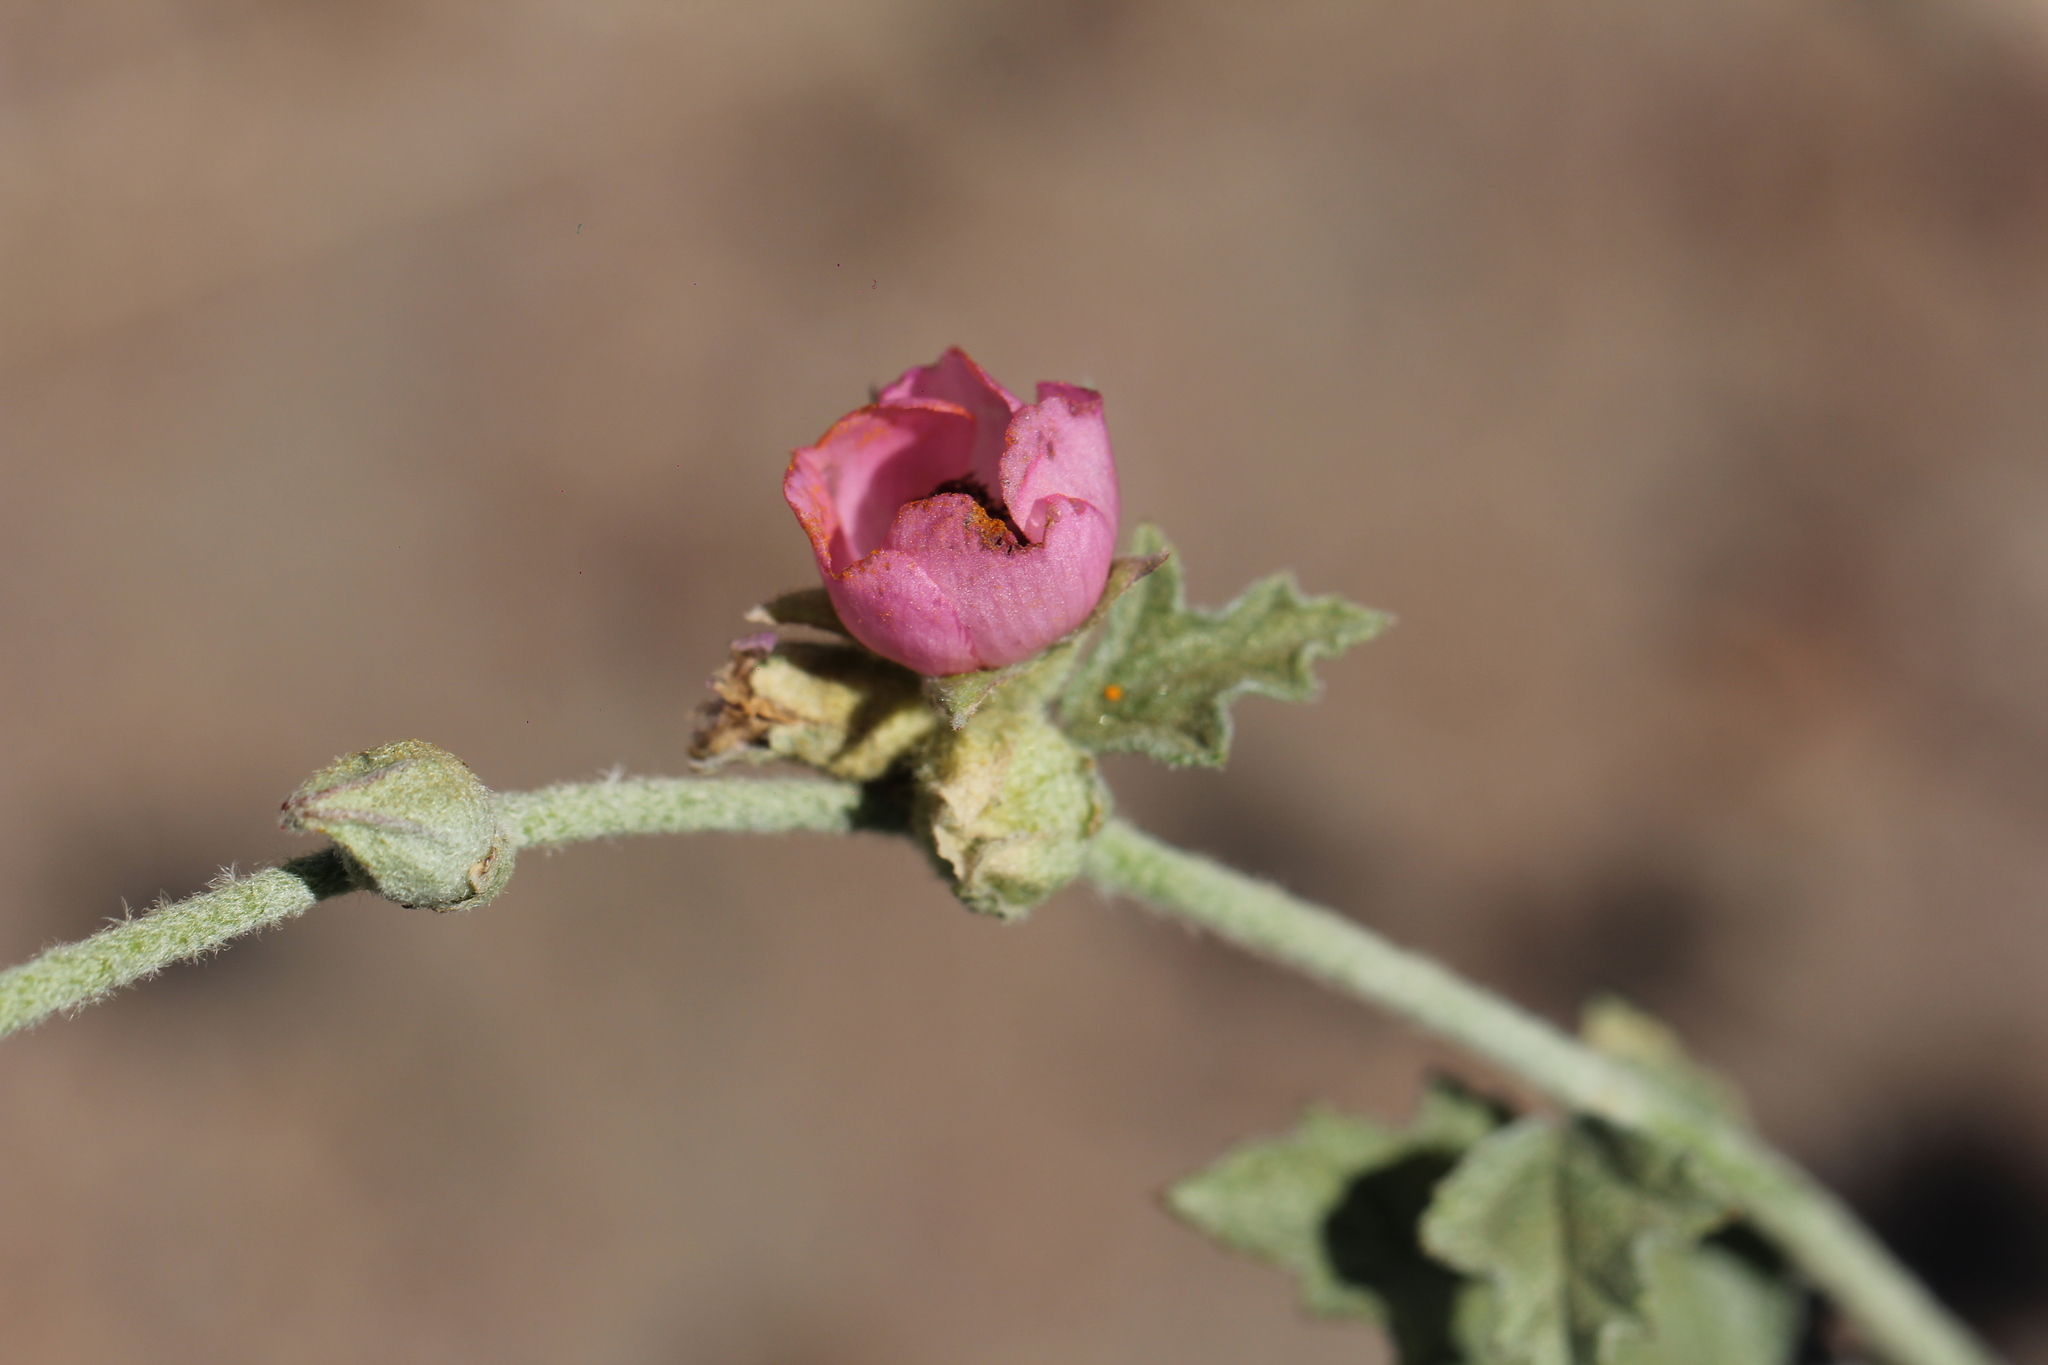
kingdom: Plantae
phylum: Tracheophyta
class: Magnoliopsida
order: Malvales
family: Malvaceae
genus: Sphaeralcea
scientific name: Sphaeralcea mendocina
